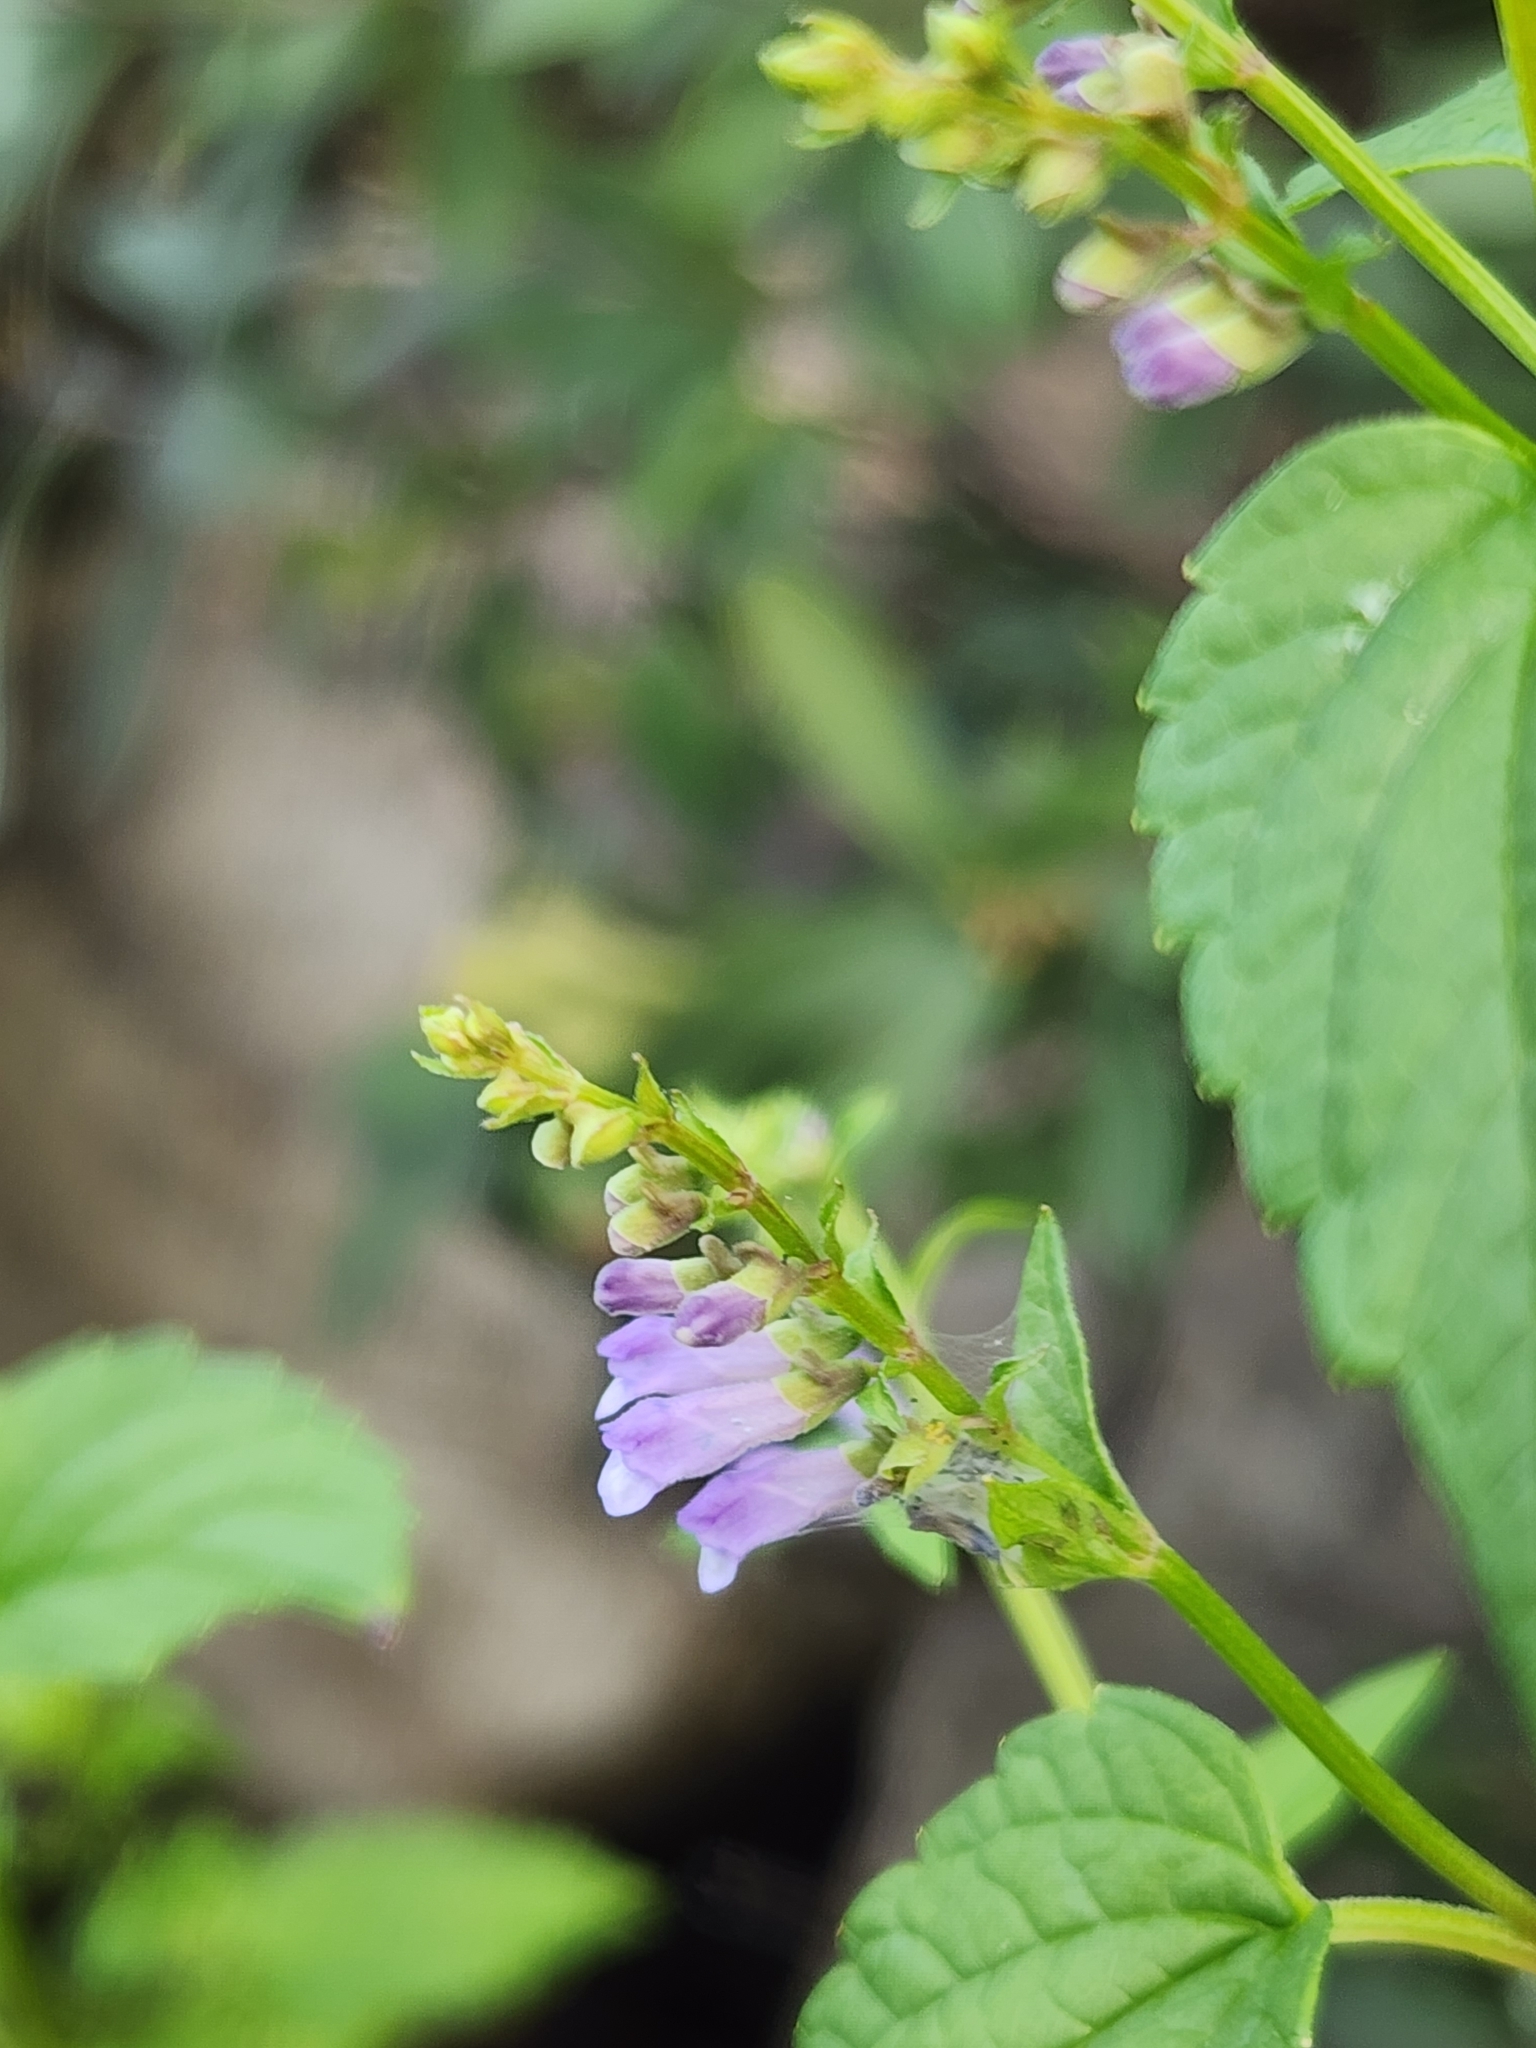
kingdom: Plantae
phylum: Tracheophyta
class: Magnoliopsida
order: Lamiales
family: Lamiaceae
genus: Scutellaria
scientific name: Scutellaria lateriflora
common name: Blue skullcap
